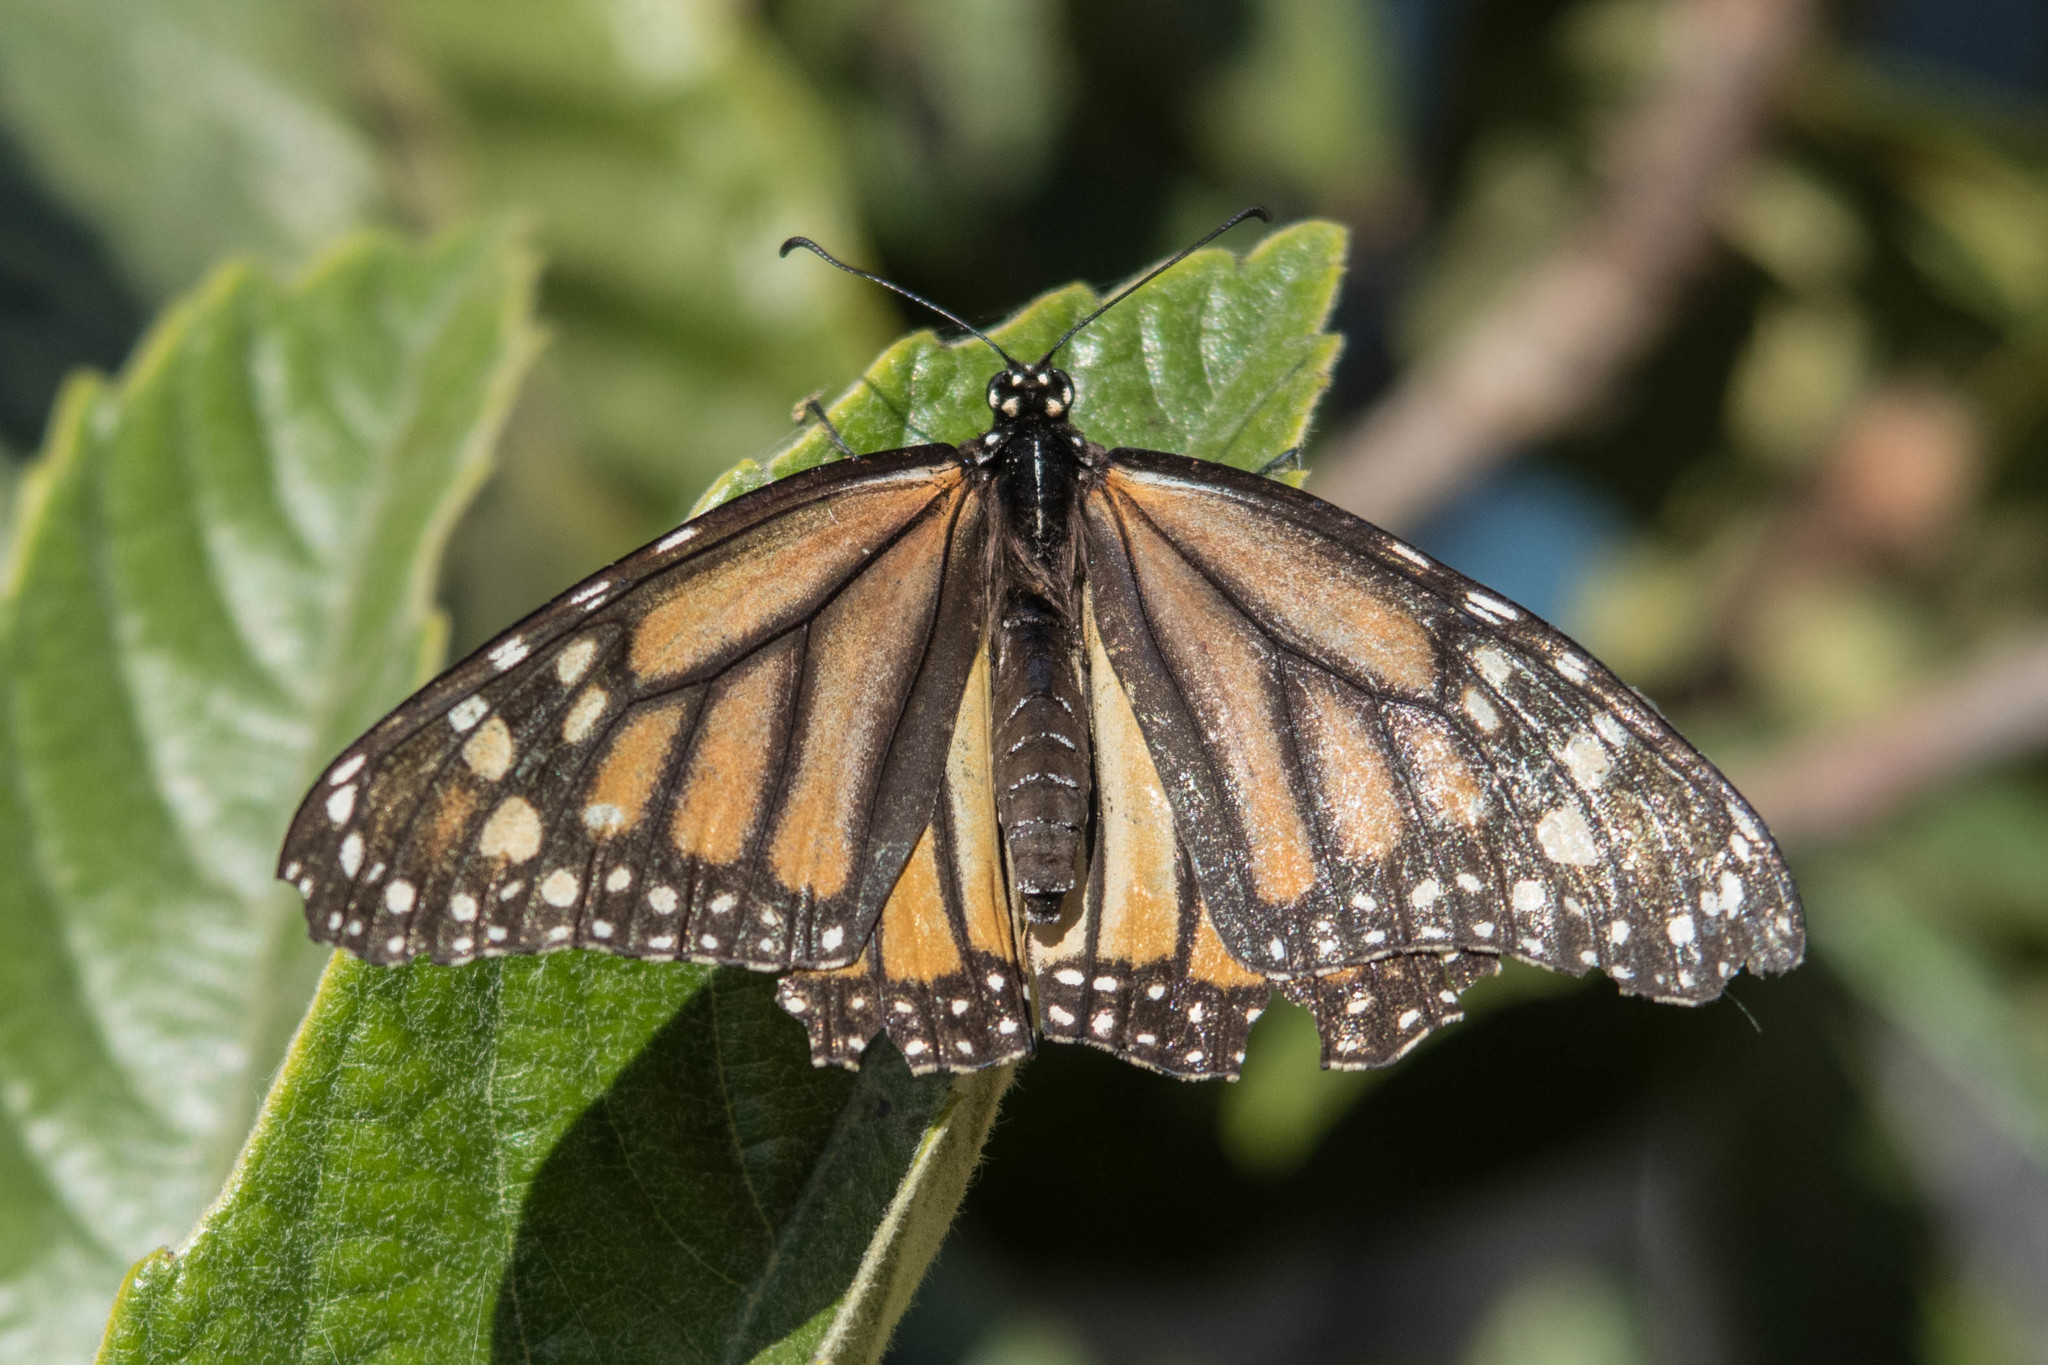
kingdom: Animalia
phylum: Arthropoda
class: Insecta
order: Lepidoptera
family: Nymphalidae
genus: Danaus
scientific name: Danaus plexippus
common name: Monarch
